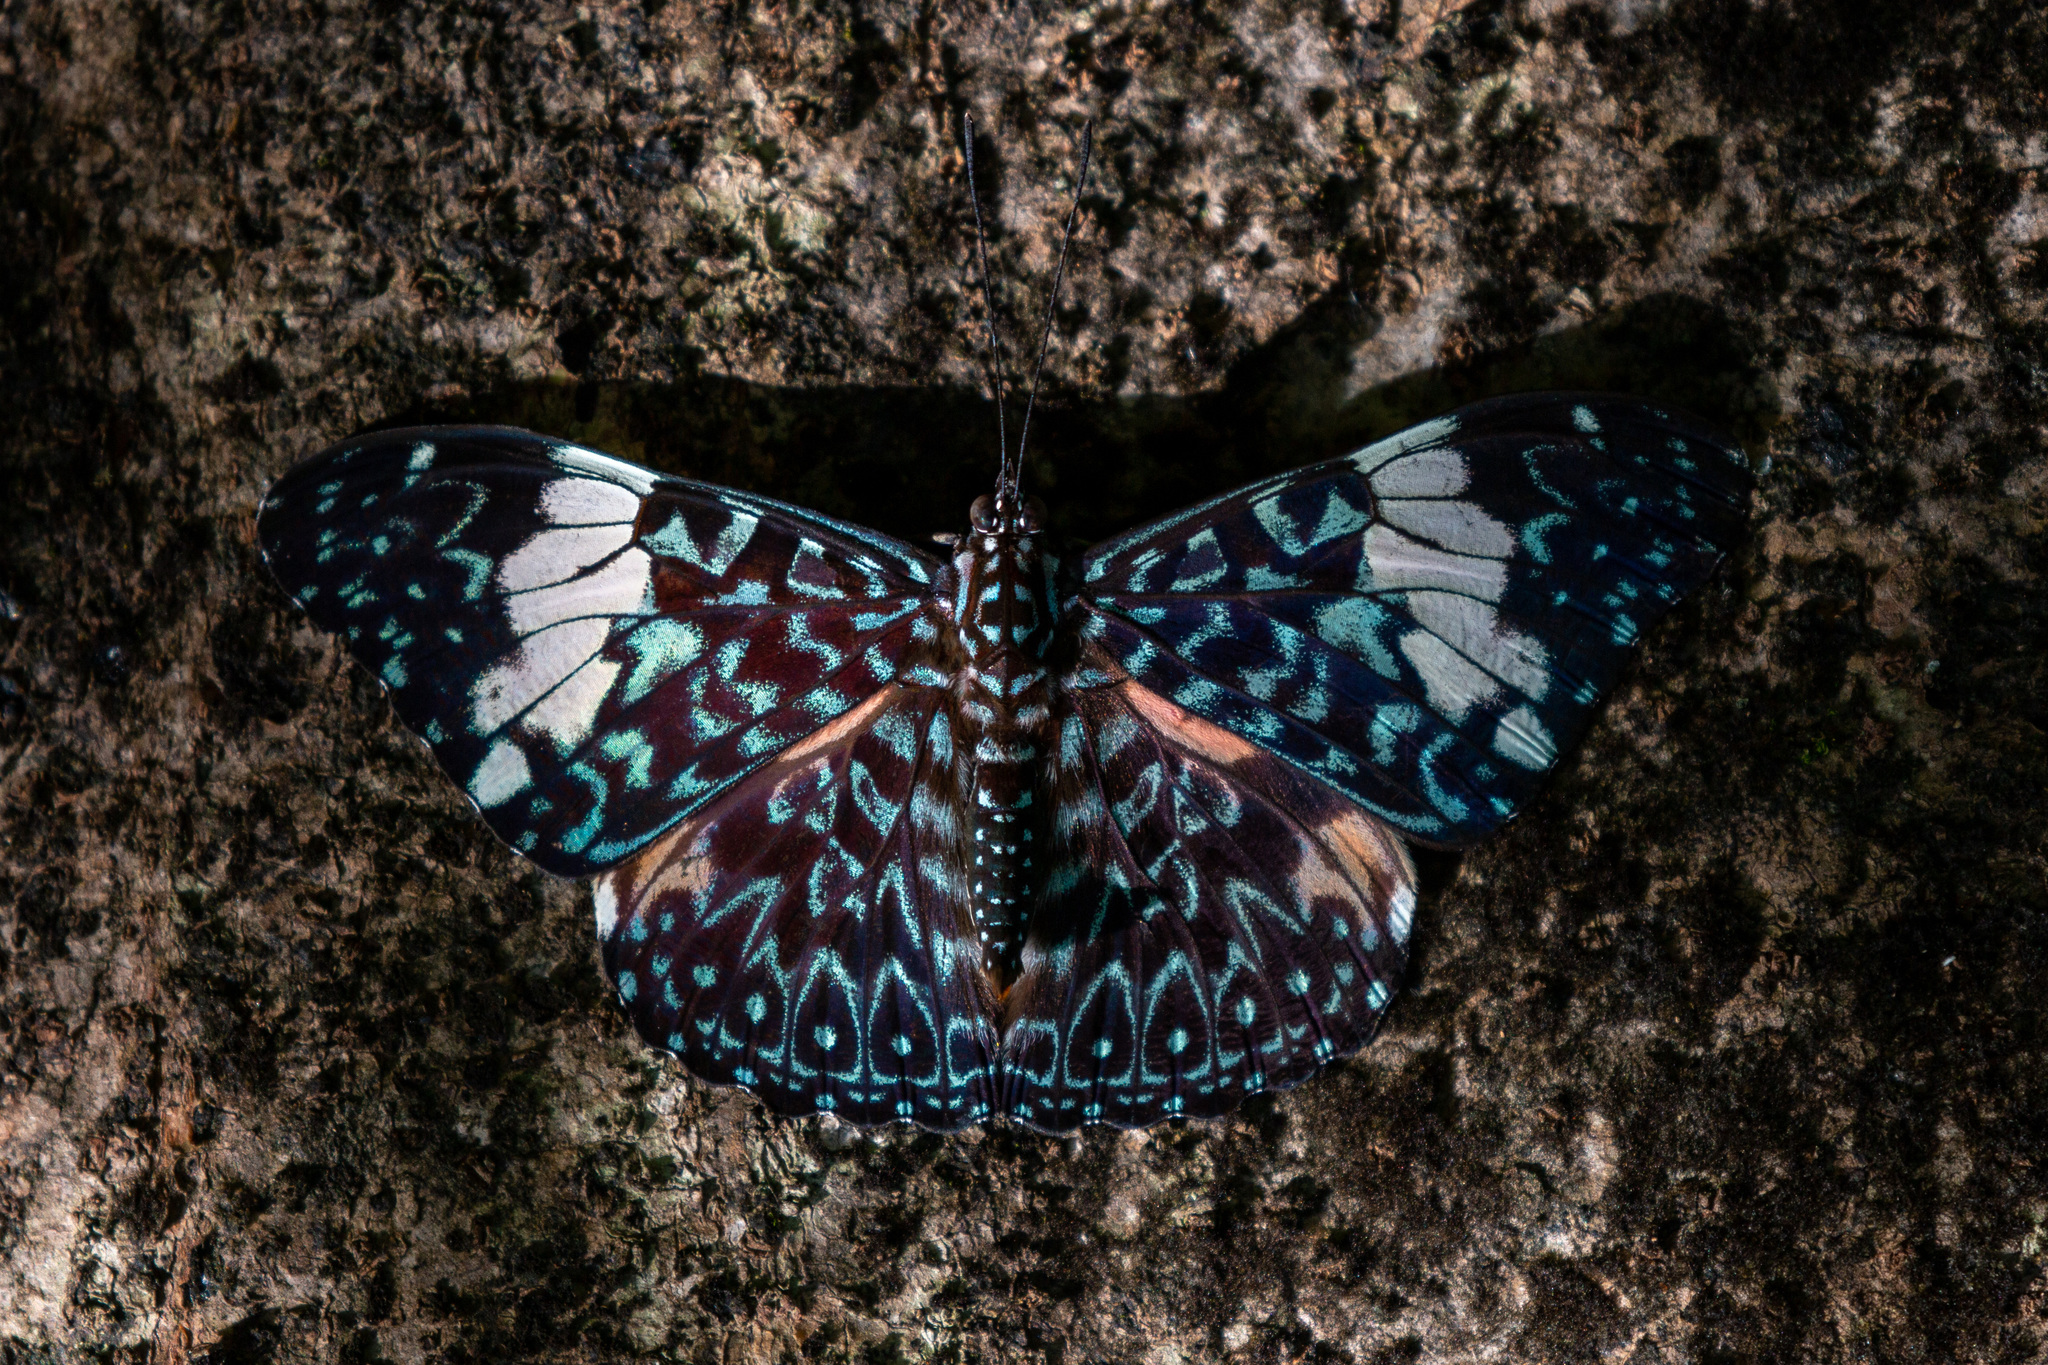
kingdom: Animalia
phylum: Arthropoda
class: Insecta
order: Lepidoptera
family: Nymphalidae
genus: Hamadryas
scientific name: Hamadryas amphinome
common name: Red cracker
